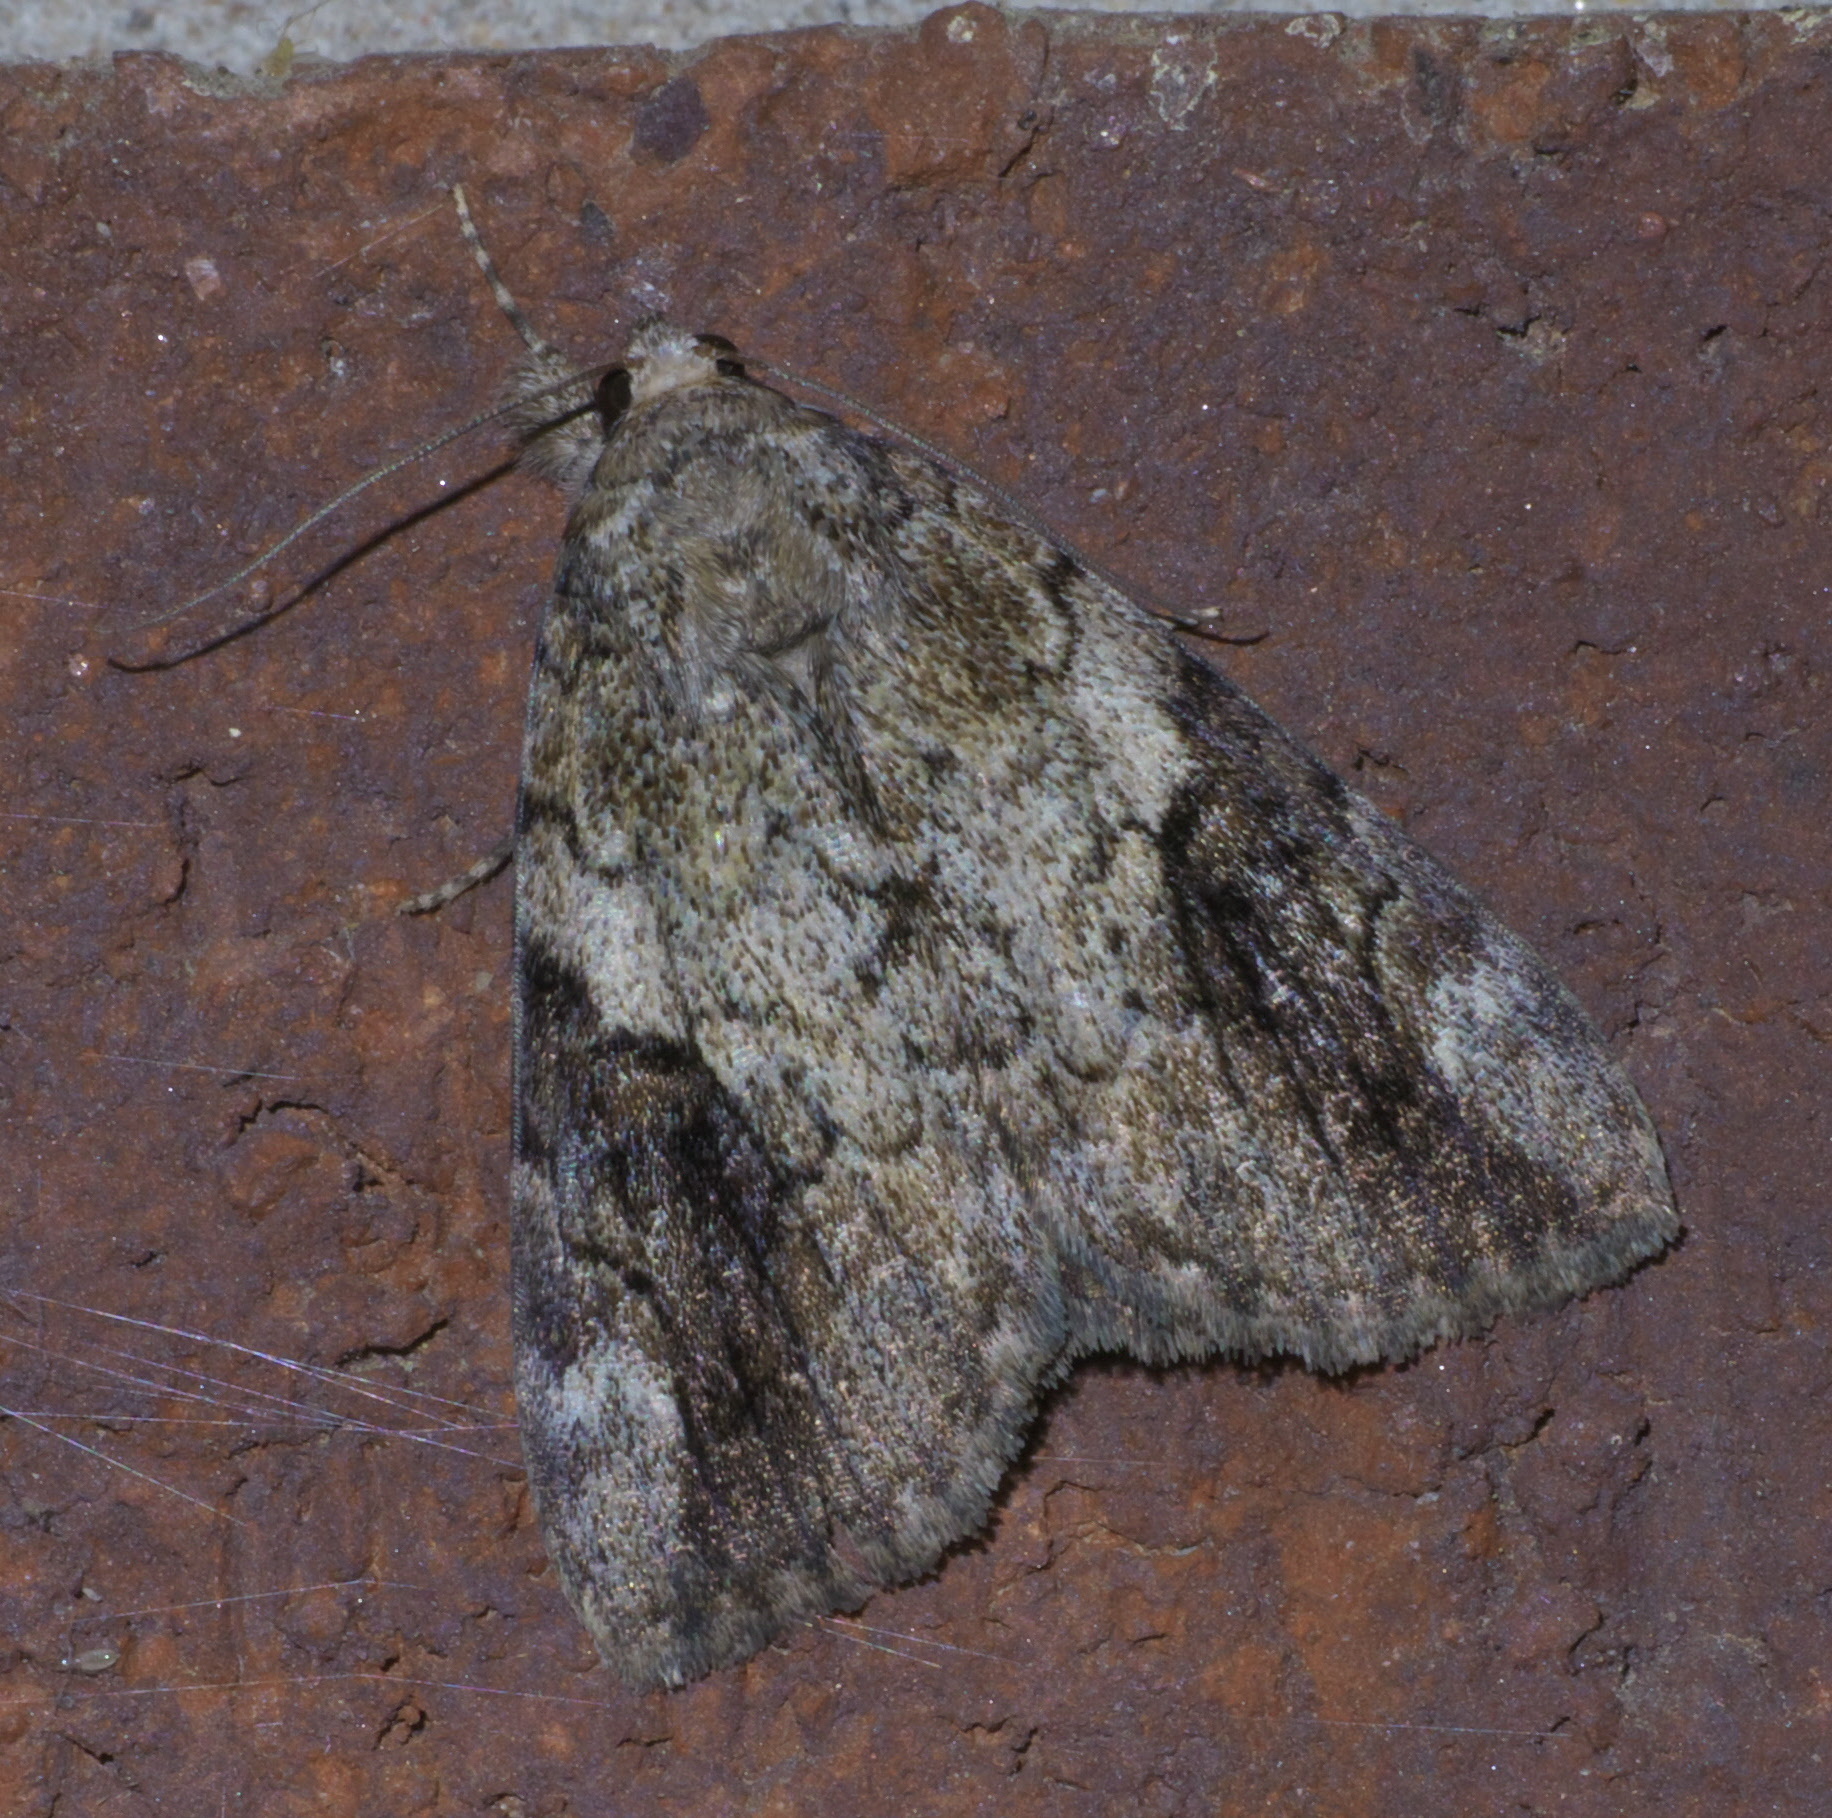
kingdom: Animalia
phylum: Arthropoda
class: Insecta
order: Lepidoptera
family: Erebidae
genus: Catocala
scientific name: Catocala micronympha
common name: Little nymph underwing
